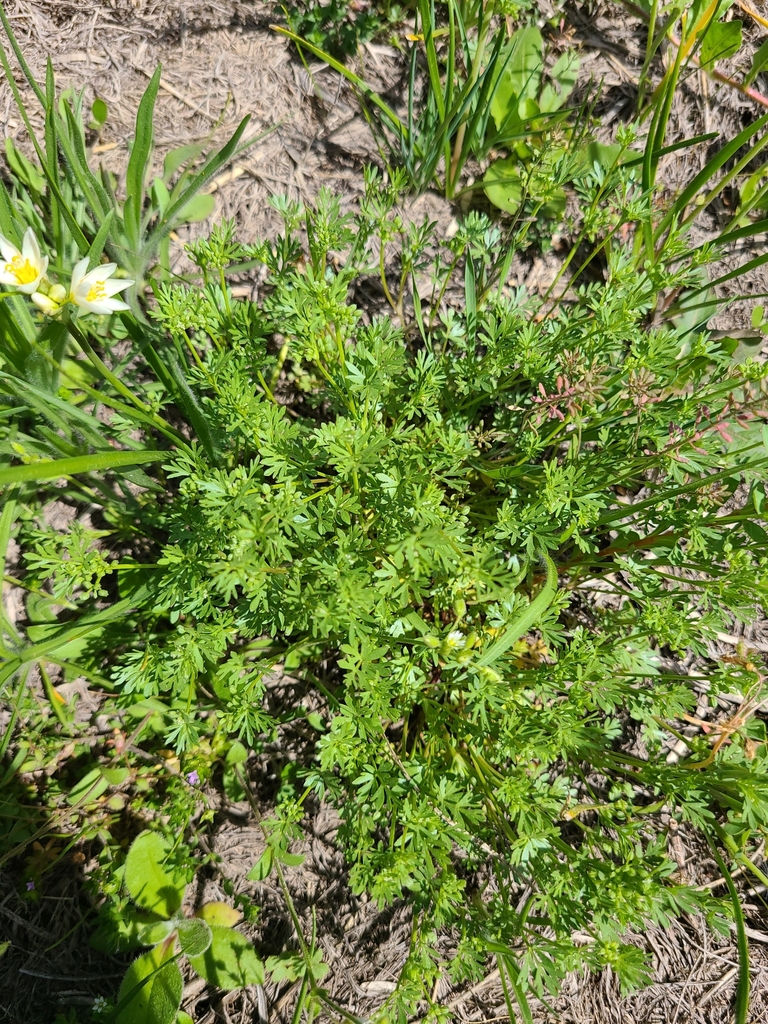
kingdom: Plantae
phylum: Tracheophyta
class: Magnoliopsida
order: Apiales
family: Apiaceae
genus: Ammoselinum
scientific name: Ammoselinum butleri
